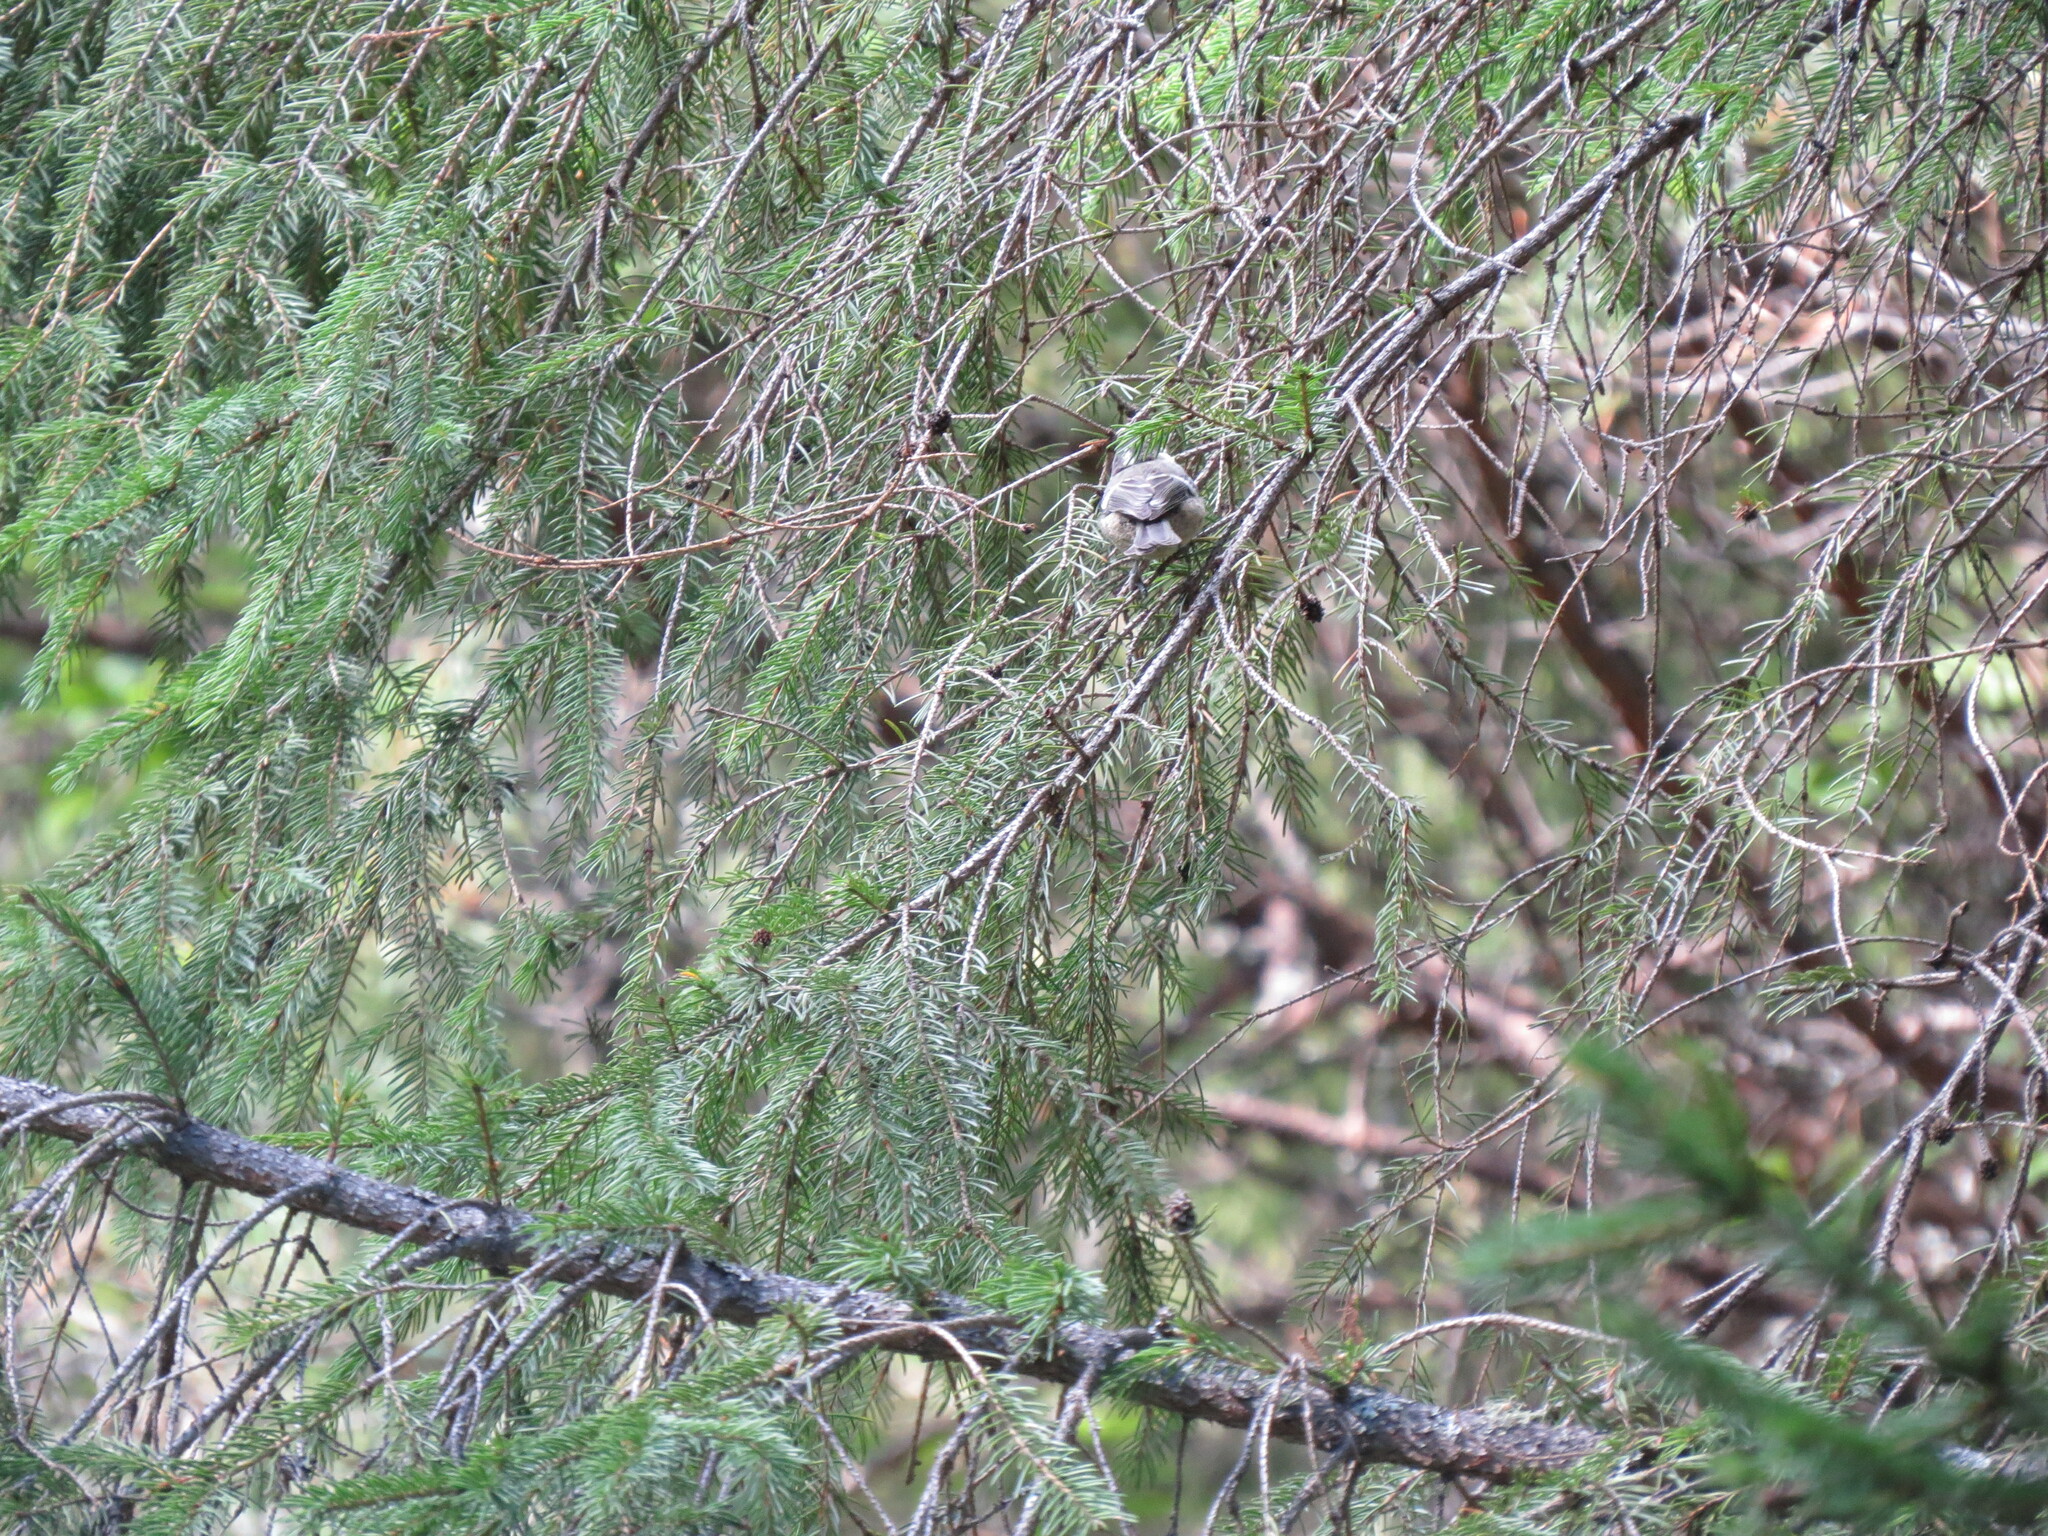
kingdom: Animalia
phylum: Chordata
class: Aves
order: Passeriformes
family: Paridae
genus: Periparus
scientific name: Periparus ater
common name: Coal tit
